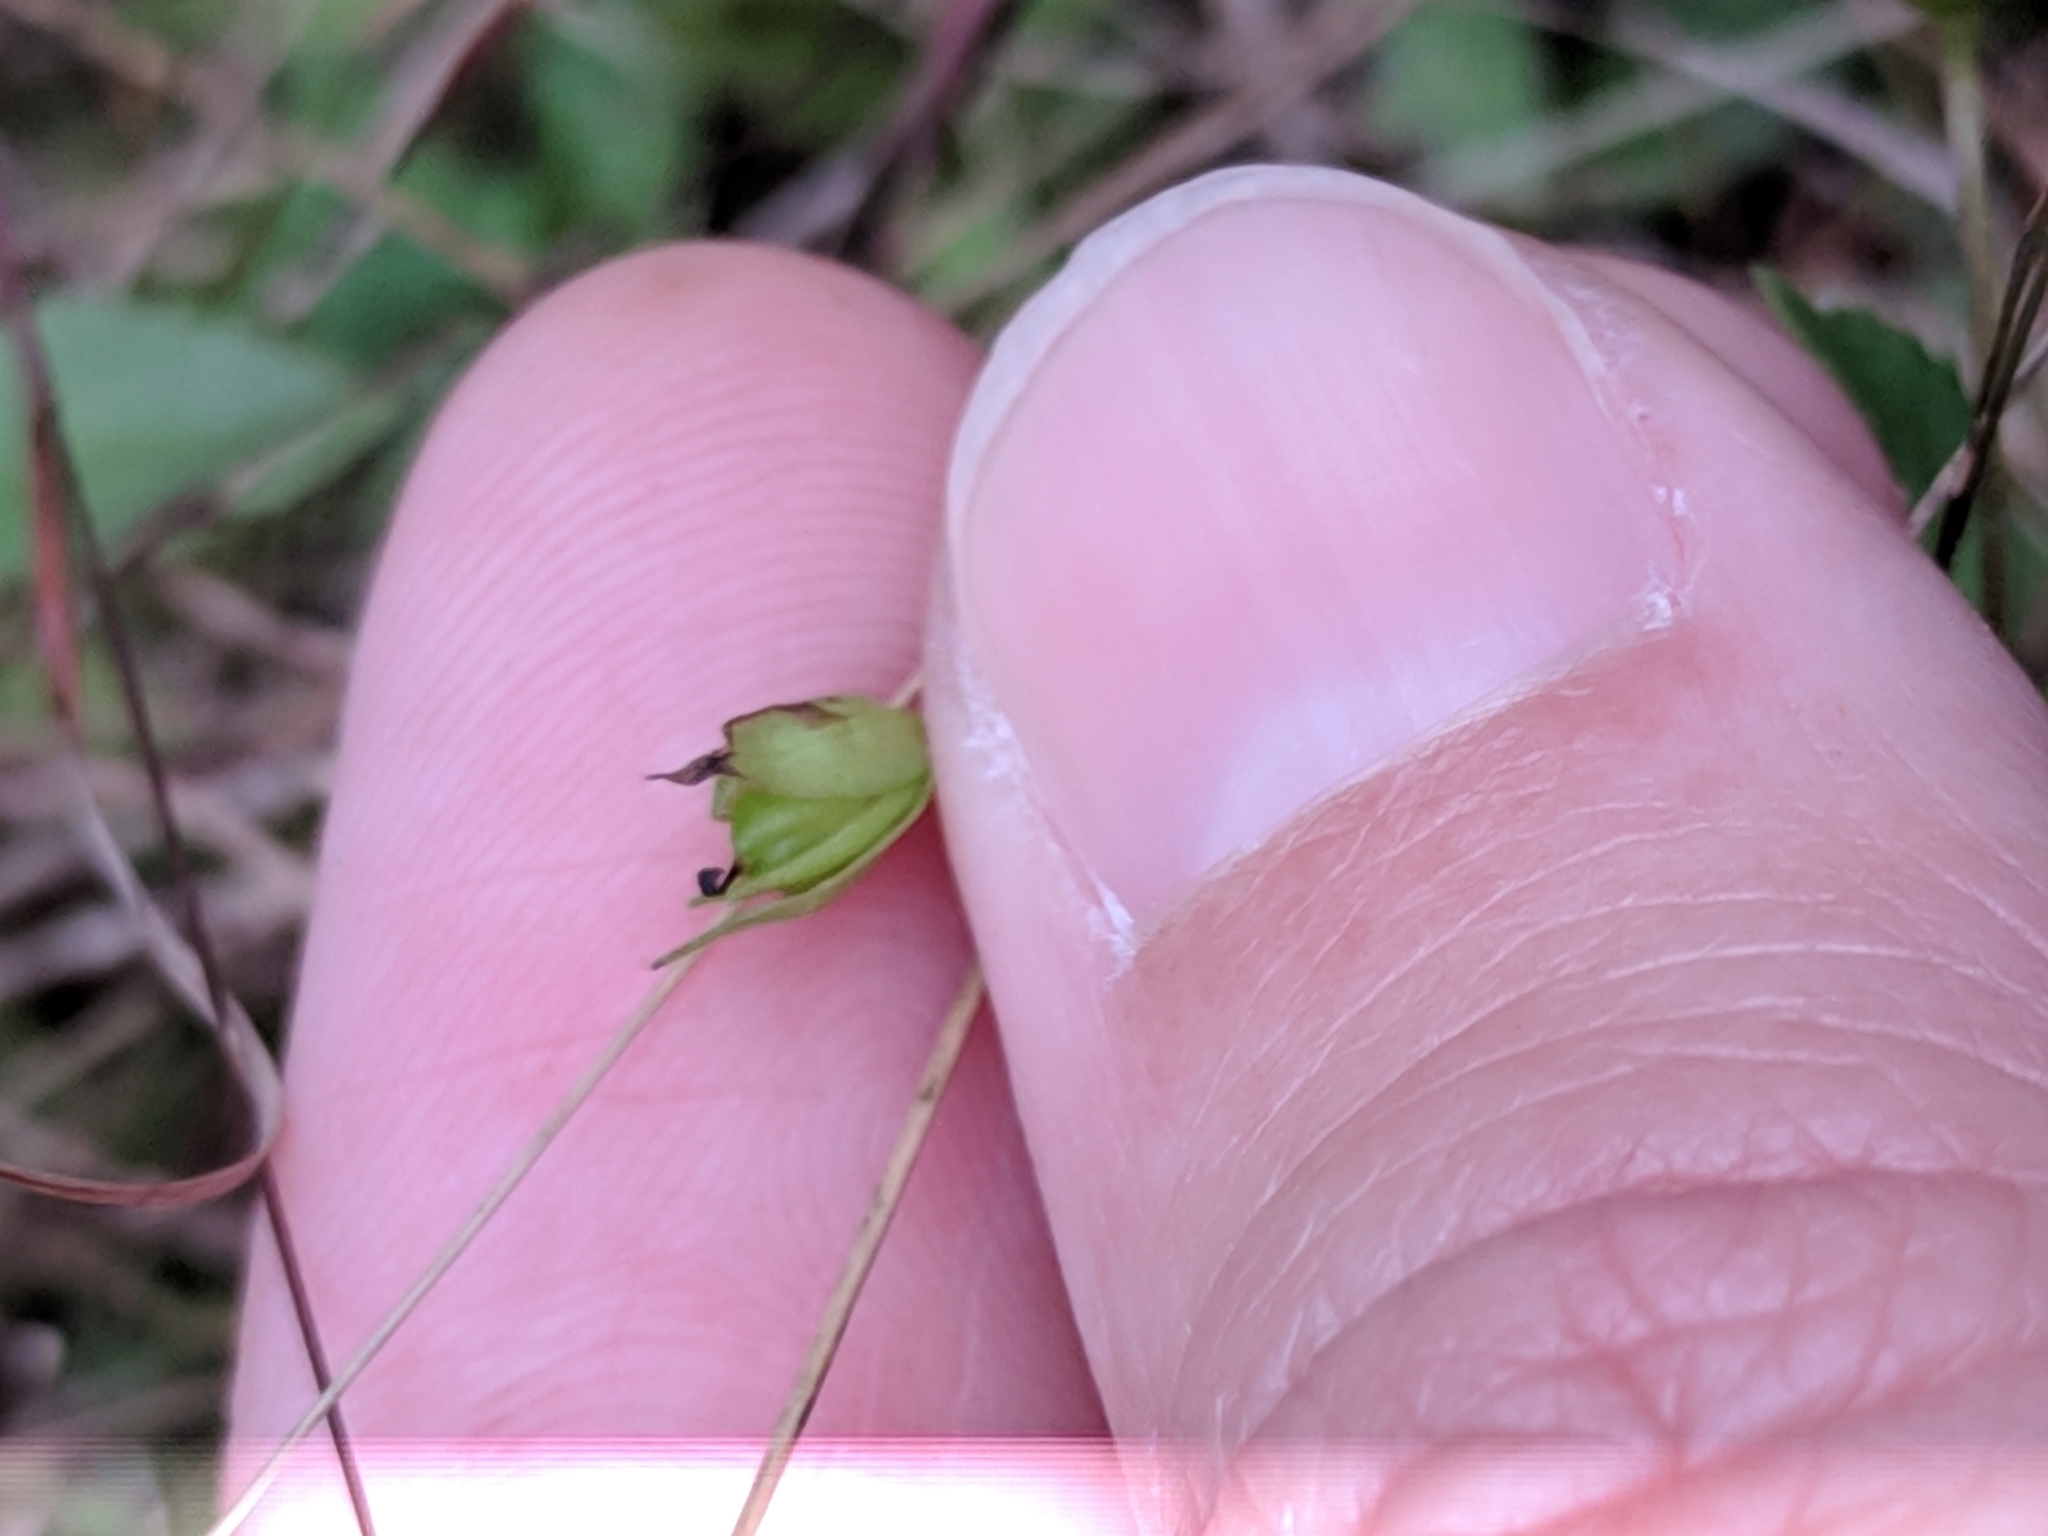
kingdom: Plantae
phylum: Tracheophyta
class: Magnoliopsida
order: Lamiales
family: Plantaginaceae
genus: Mecardonia
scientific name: Mecardonia procumbens
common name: Baby jump-up
